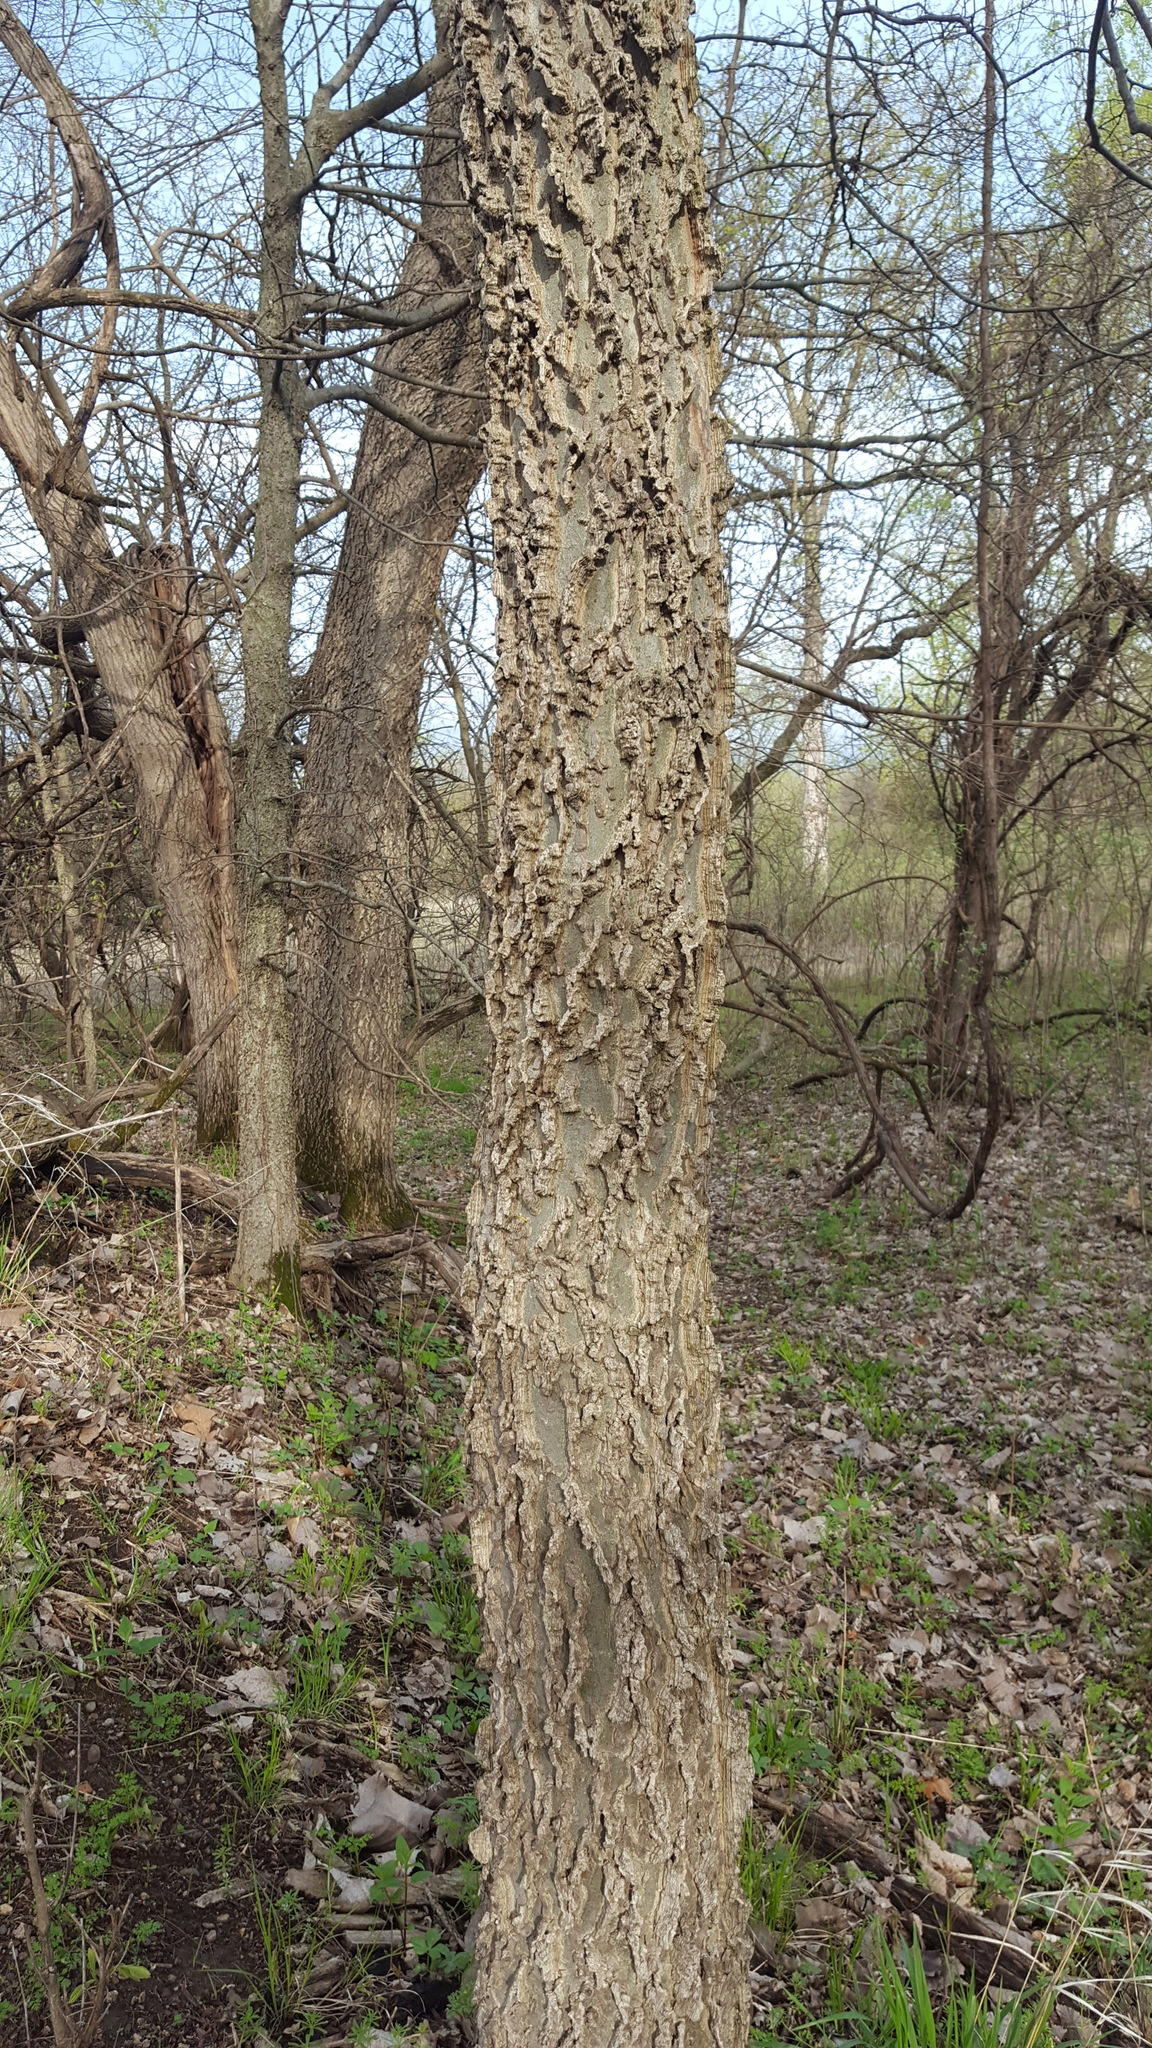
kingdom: Plantae
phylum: Tracheophyta
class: Magnoliopsida
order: Rosales
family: Cannabaceae
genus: Celtis
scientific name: Celtis occidentalis
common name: Common hackberry
